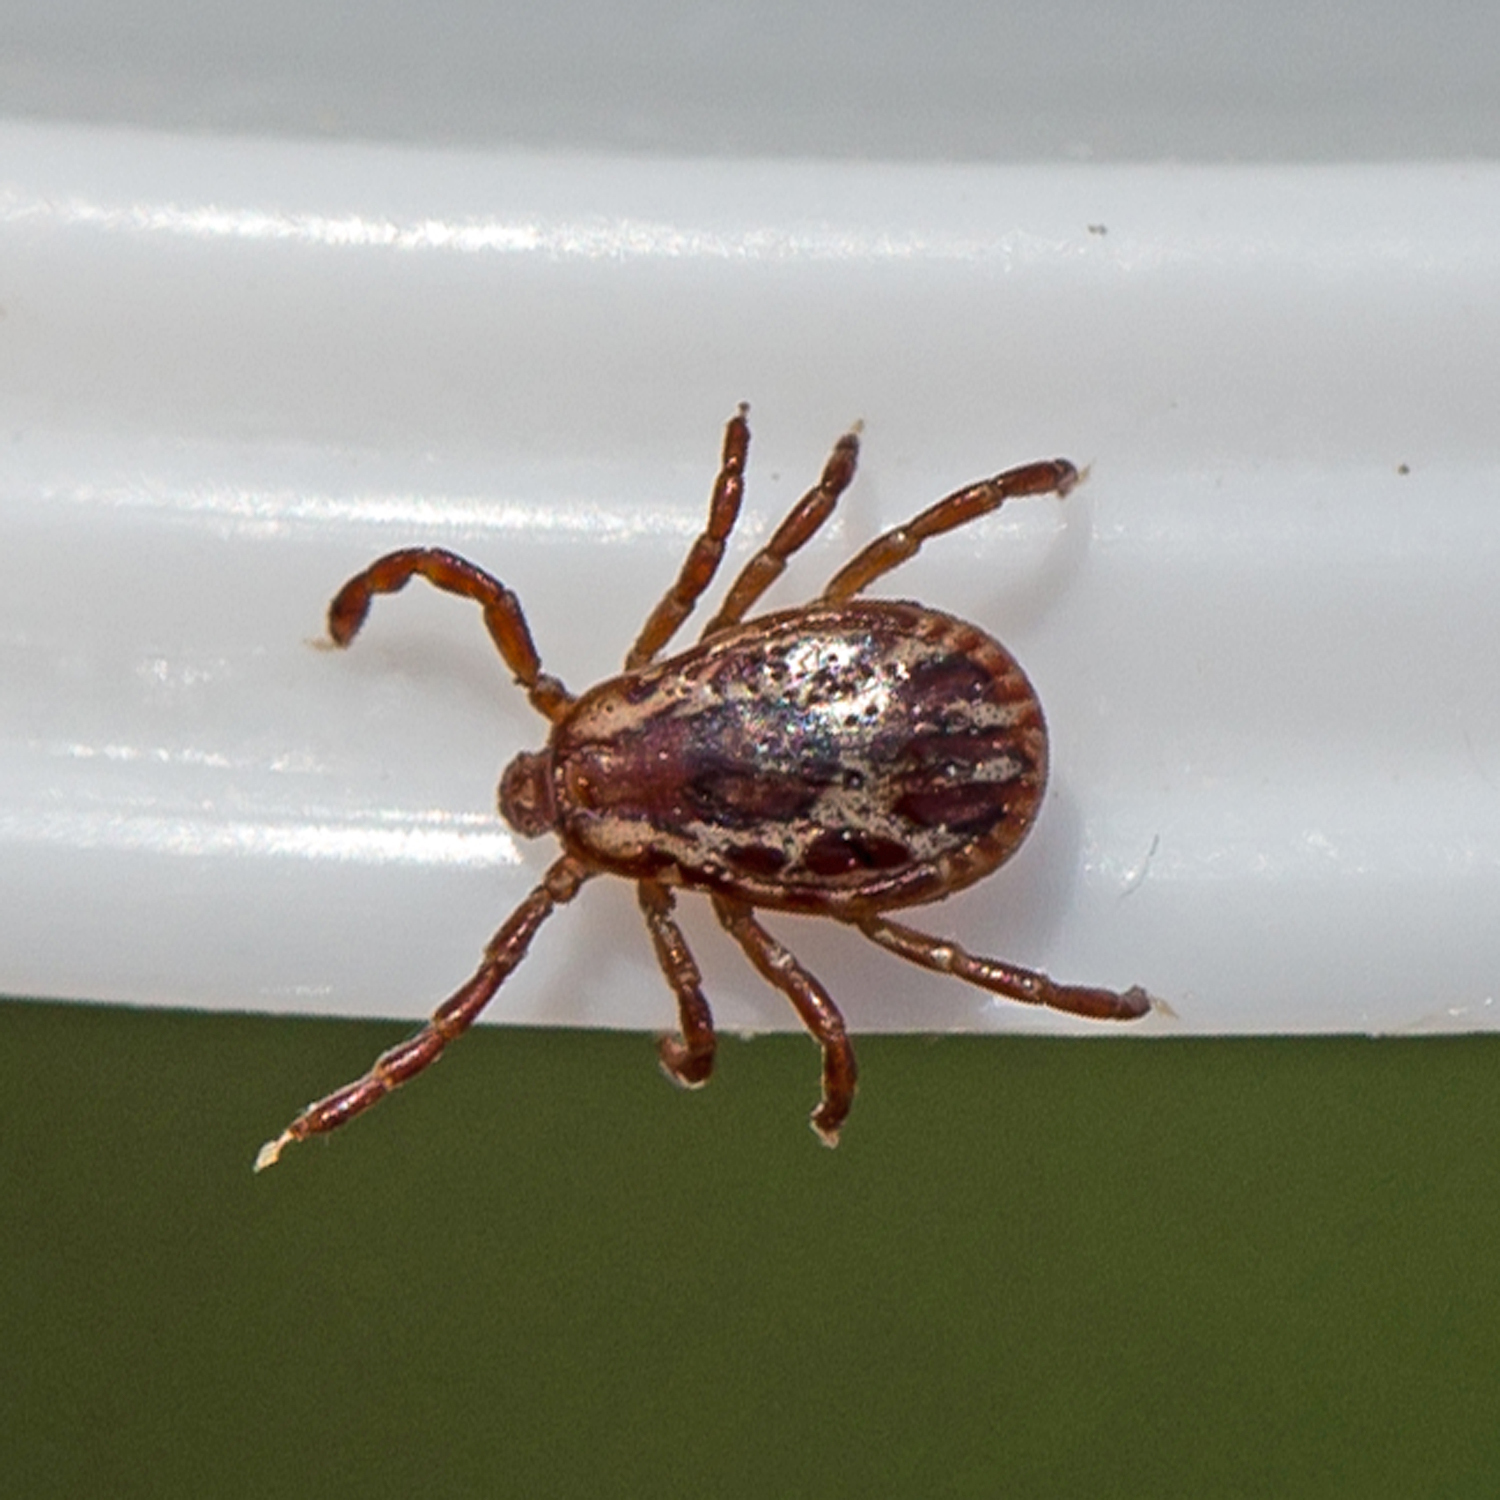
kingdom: Animalia
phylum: Arthropoda
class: Arachnida
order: Ixodida
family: Ixodidae
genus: Dermacentor
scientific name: Dermacentor variabilis
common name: American dog tick
